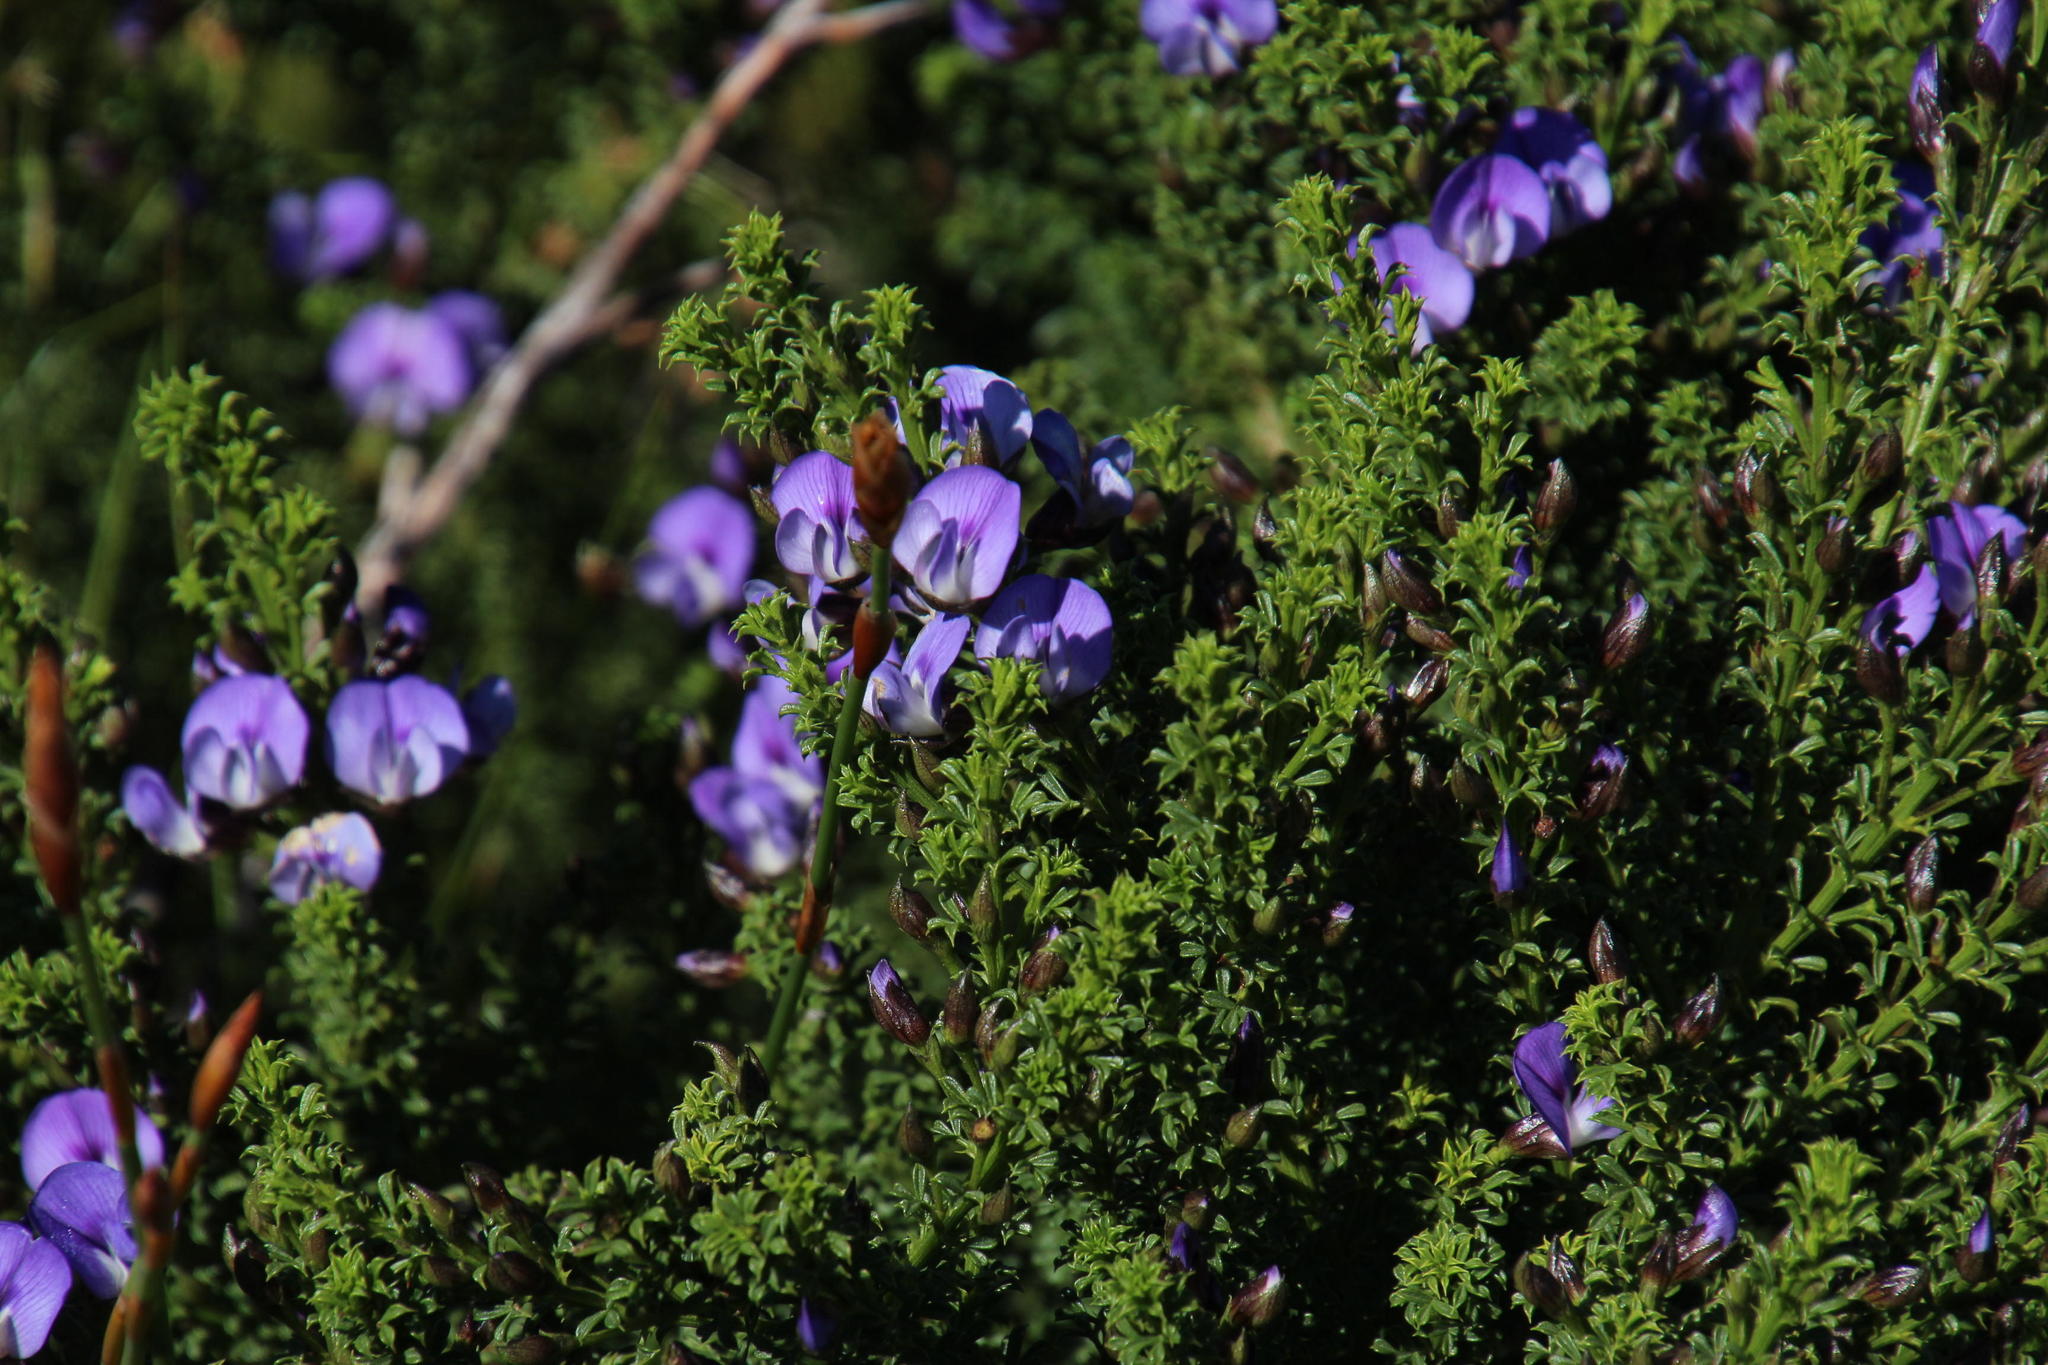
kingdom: Plantae
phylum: Tracheophyta
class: Magnoliopsida
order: Fabales
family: Fabaceae
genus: Psoralea
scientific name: Psoralea aculeata
